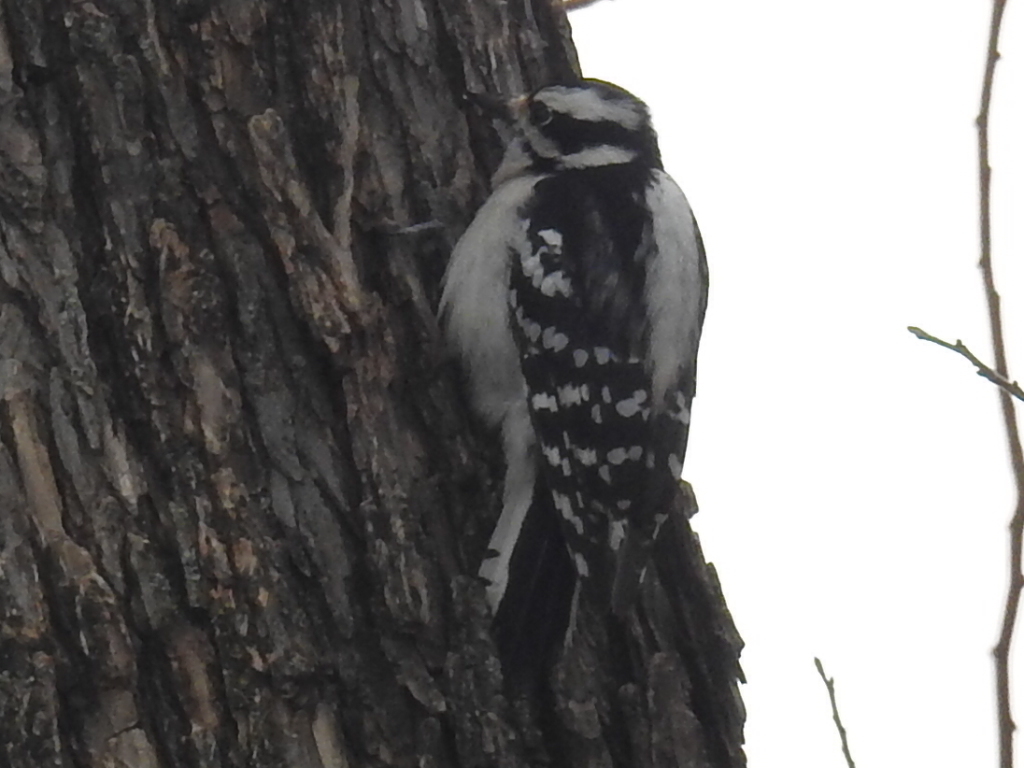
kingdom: Animalia
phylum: Chordata
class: Aves
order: Piciformes
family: Picidae
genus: Dryobates
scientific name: Dryobates pubescens
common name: Downy woodpecker
